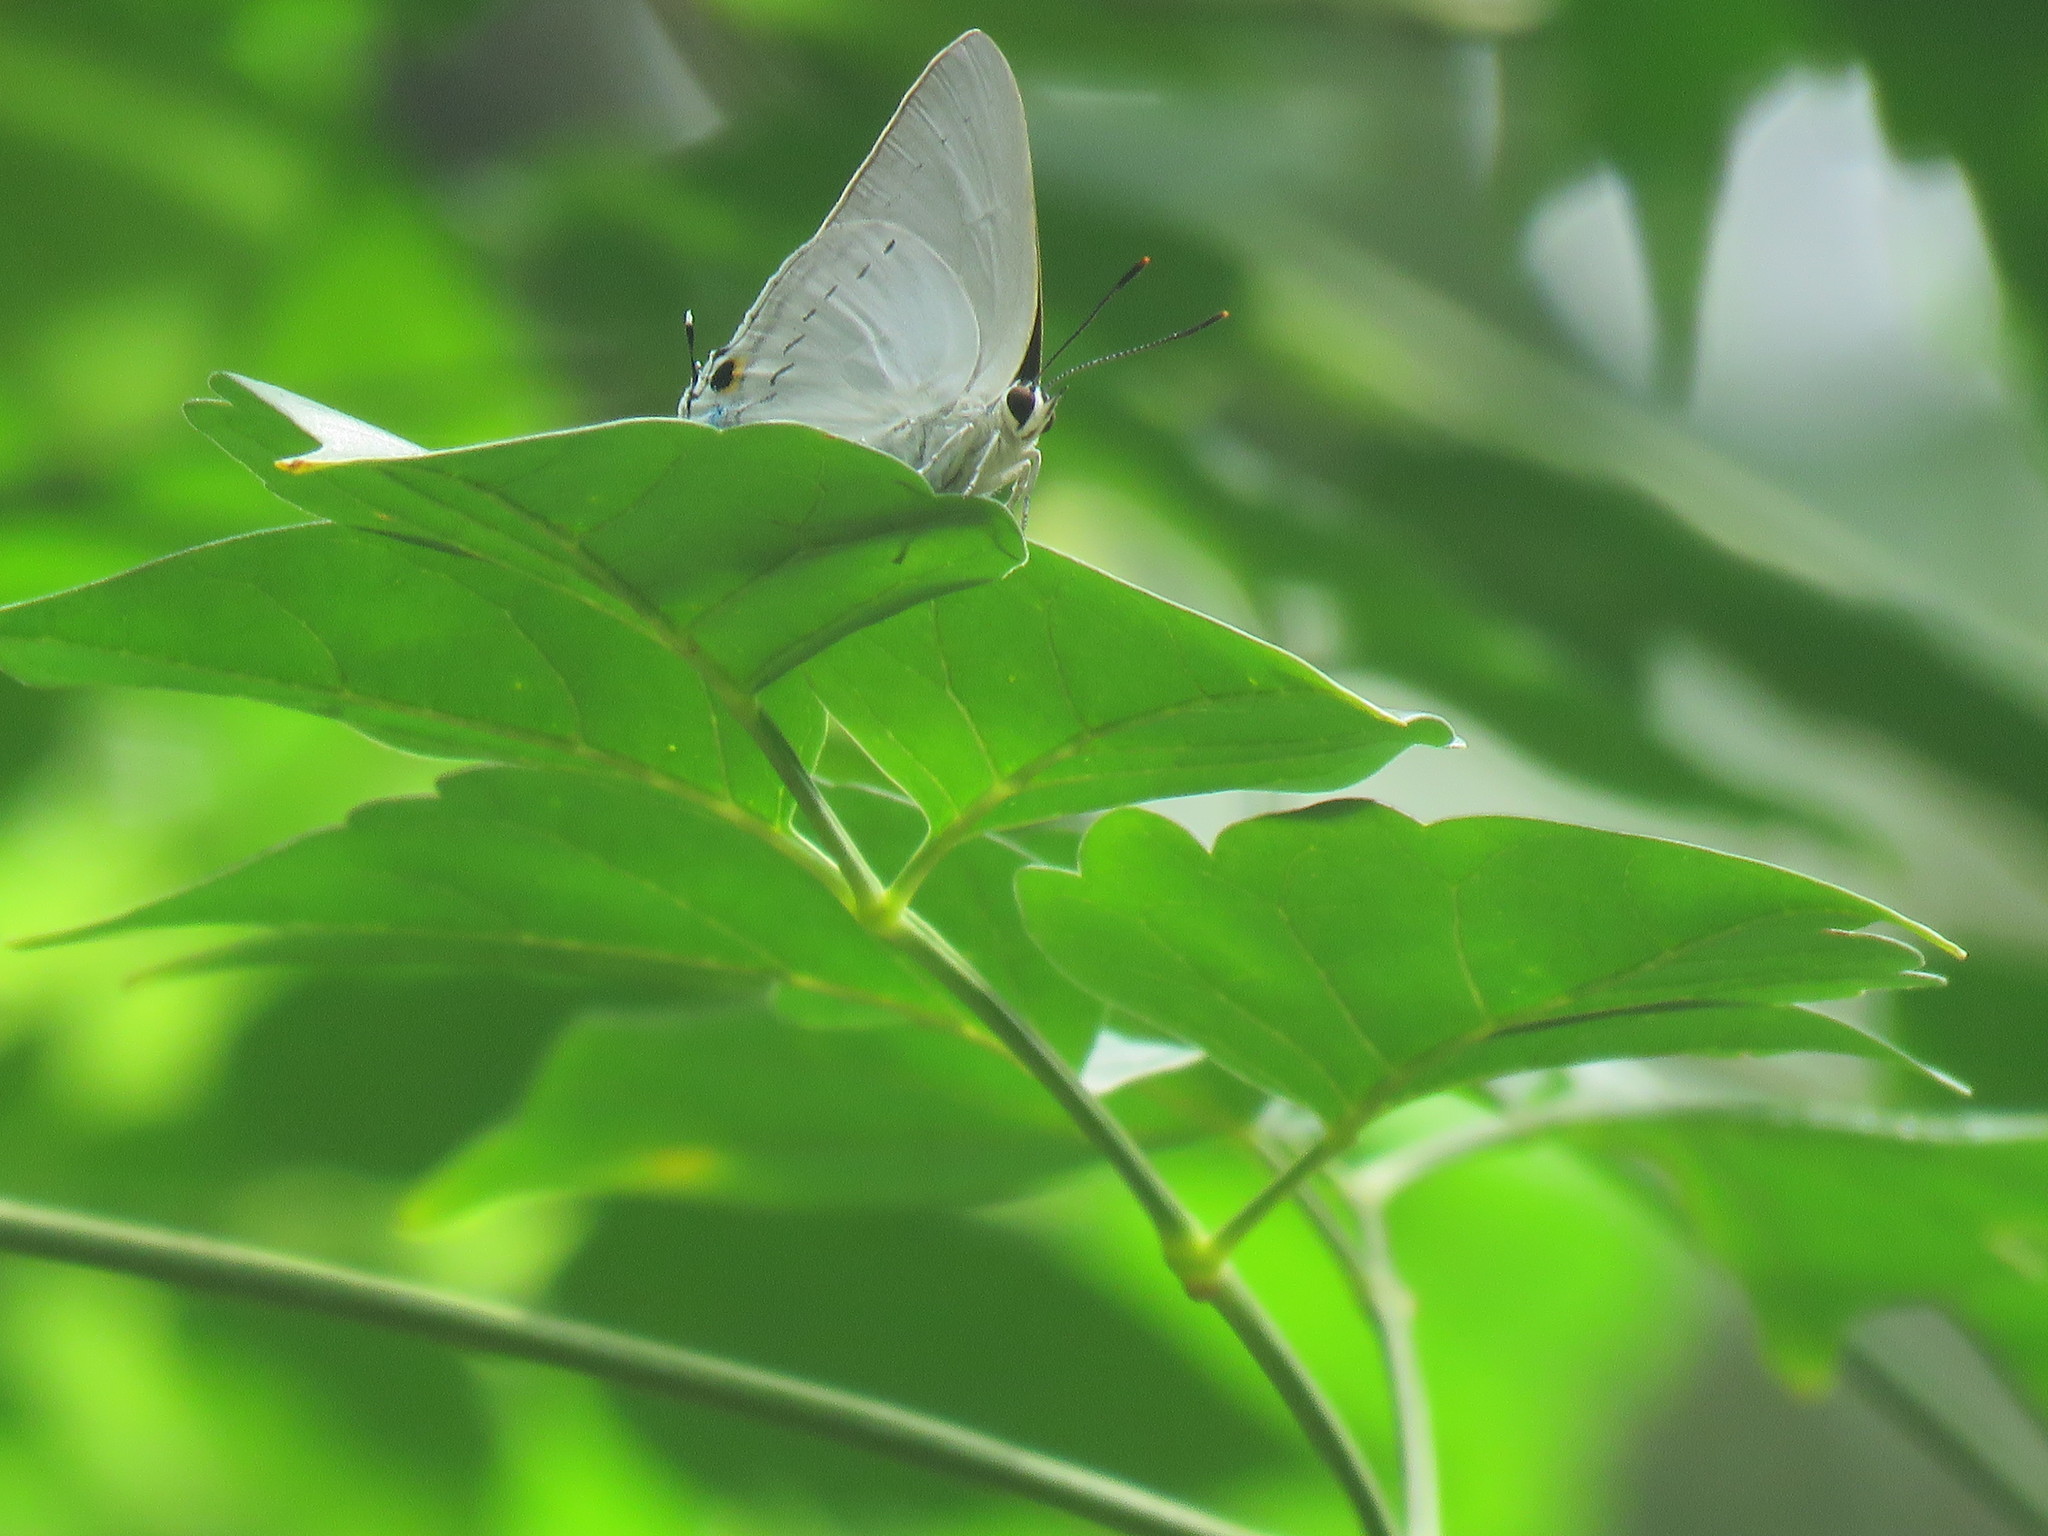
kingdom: Animalia
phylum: Arthropoda
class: Insecta
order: Lepidoptera
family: Lycaenidae
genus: Tajuria
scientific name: Tajuria cippus
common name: Peacock royal
